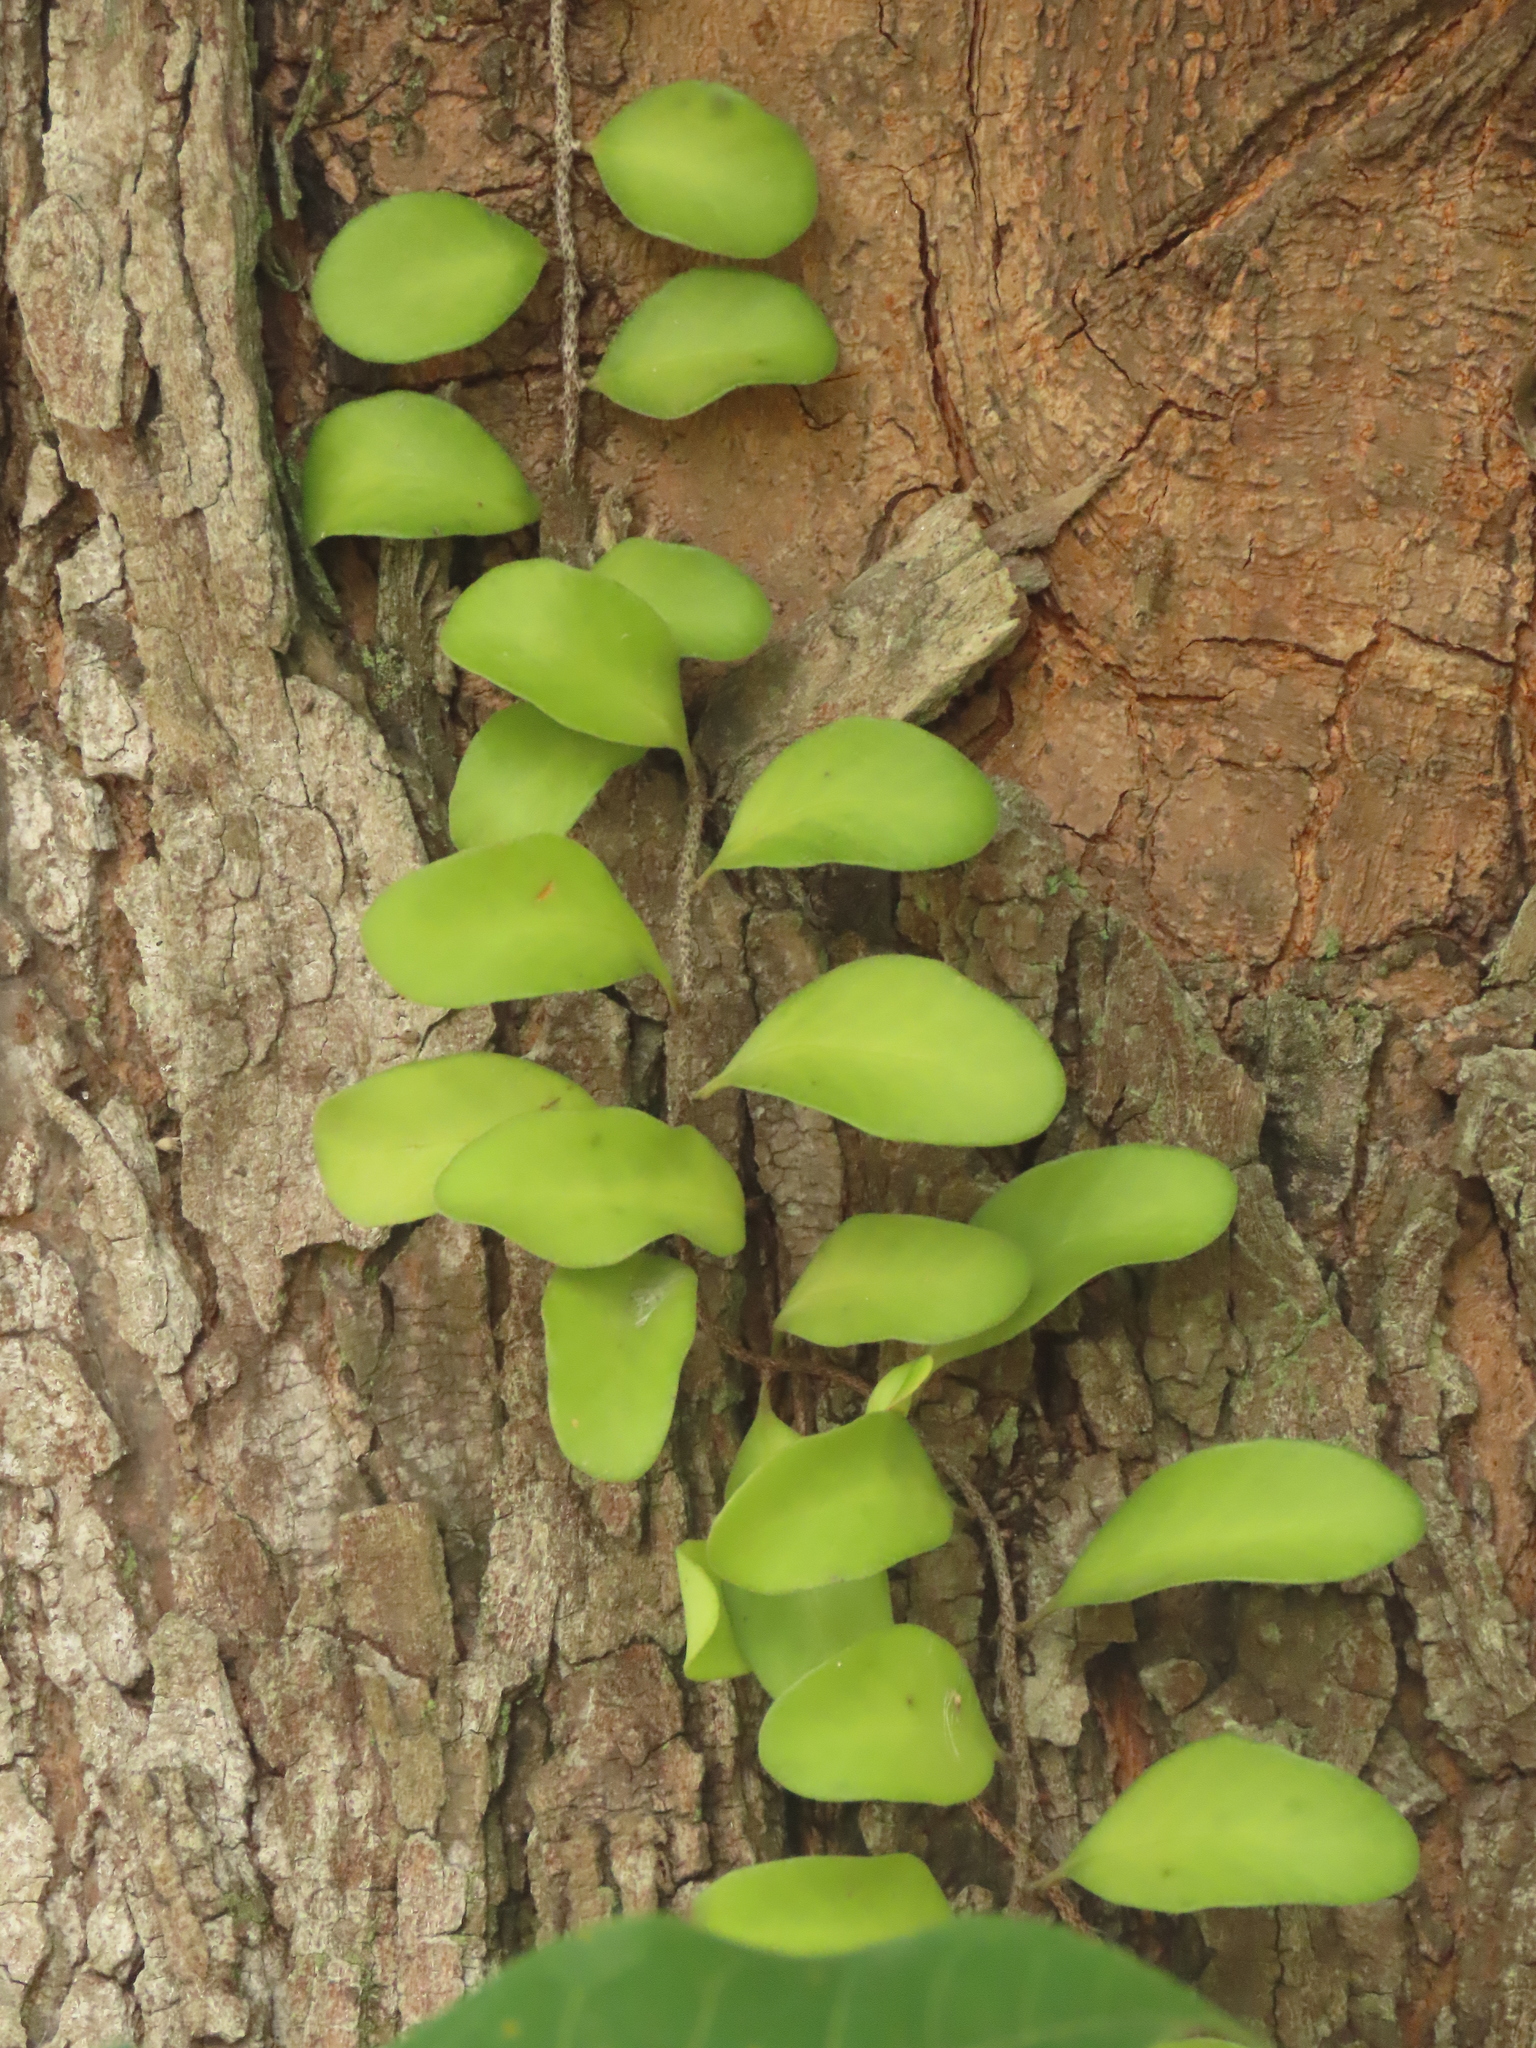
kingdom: Plantae
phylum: Tracheophyta
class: Polypodiopsida
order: Polypodiales
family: Polypodiaceae
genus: Pyrrosia
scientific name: Pyrrosia lanceolata
